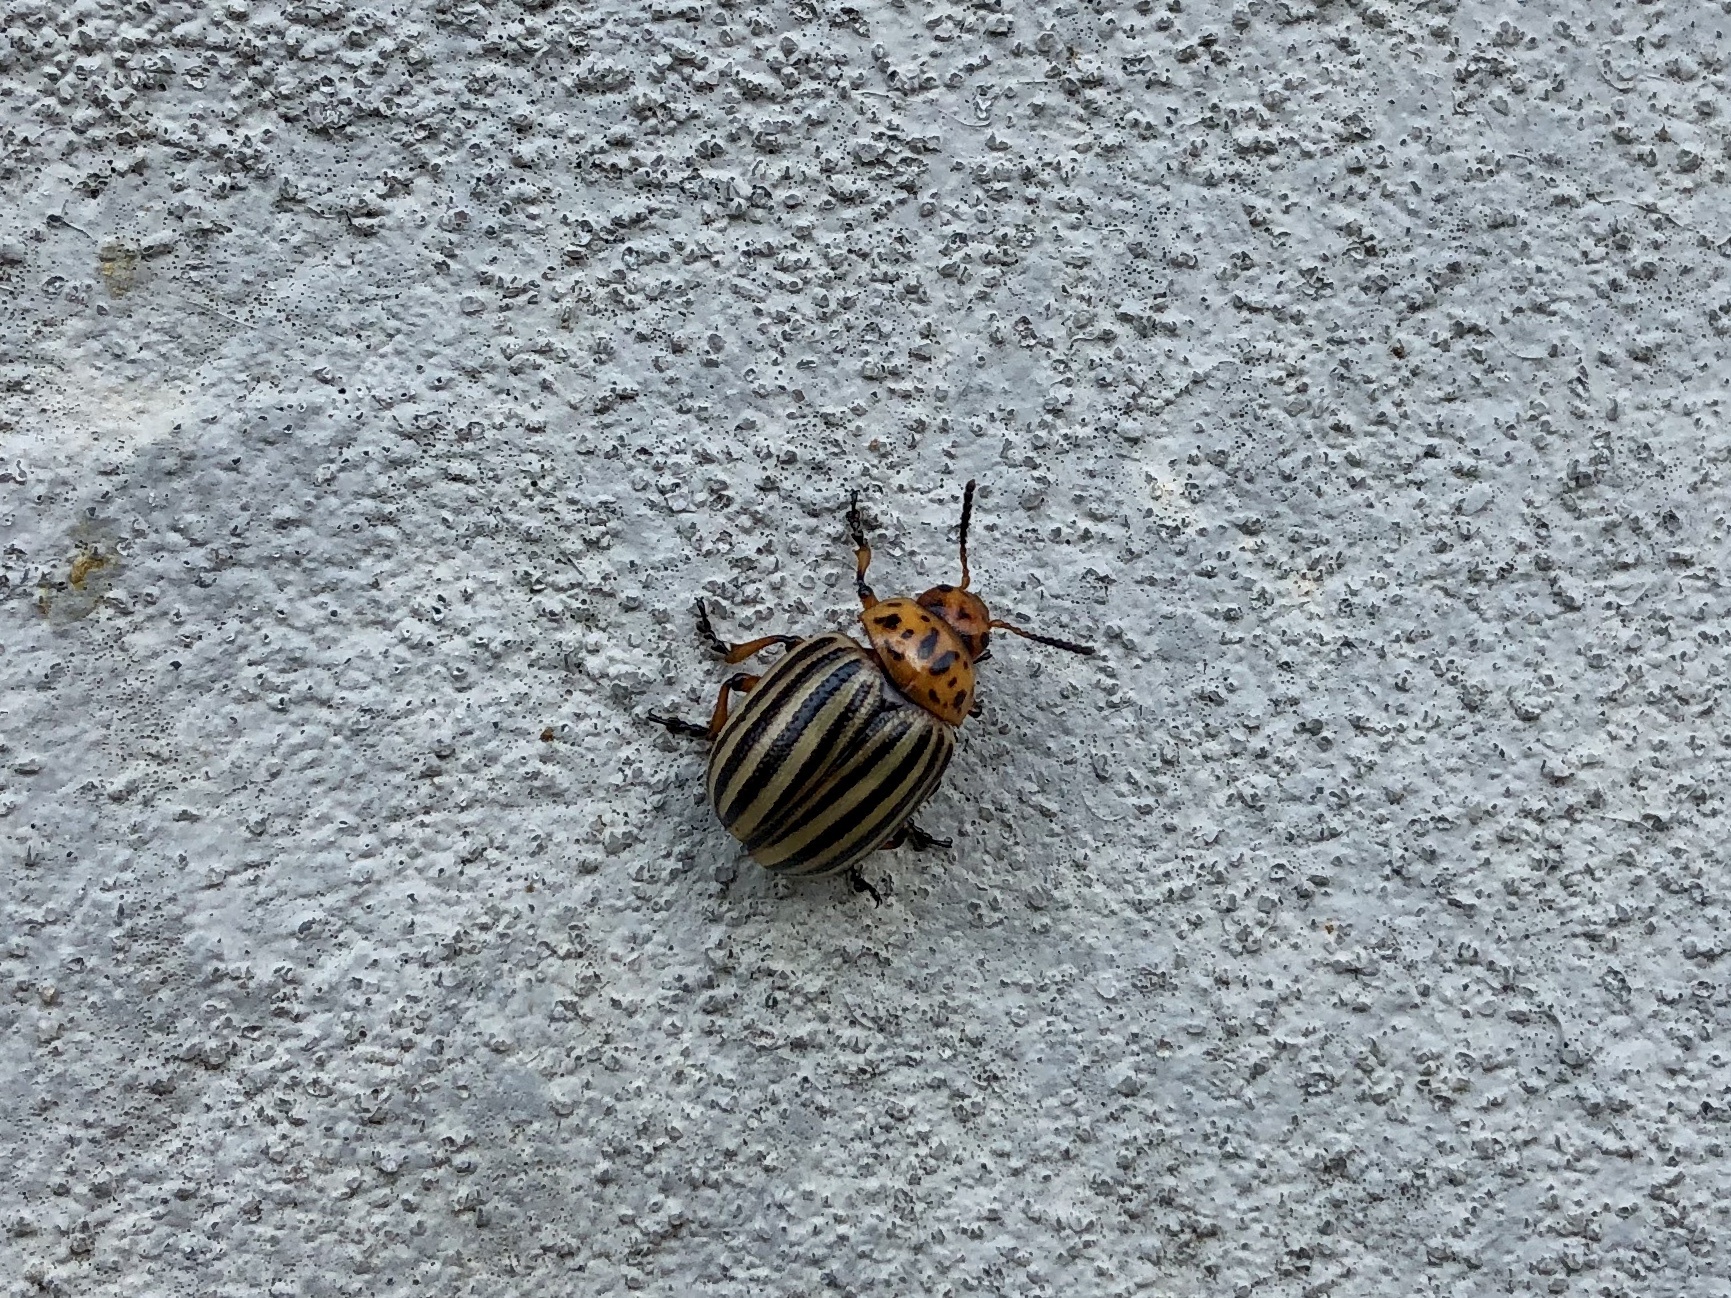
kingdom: Animalia
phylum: Arthropoda
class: Insecta
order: Coleoptera
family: Chrysomelidae
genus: Leptinotarsa
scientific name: Leptinotarsa decemlineata
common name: Colorado potato beetle
